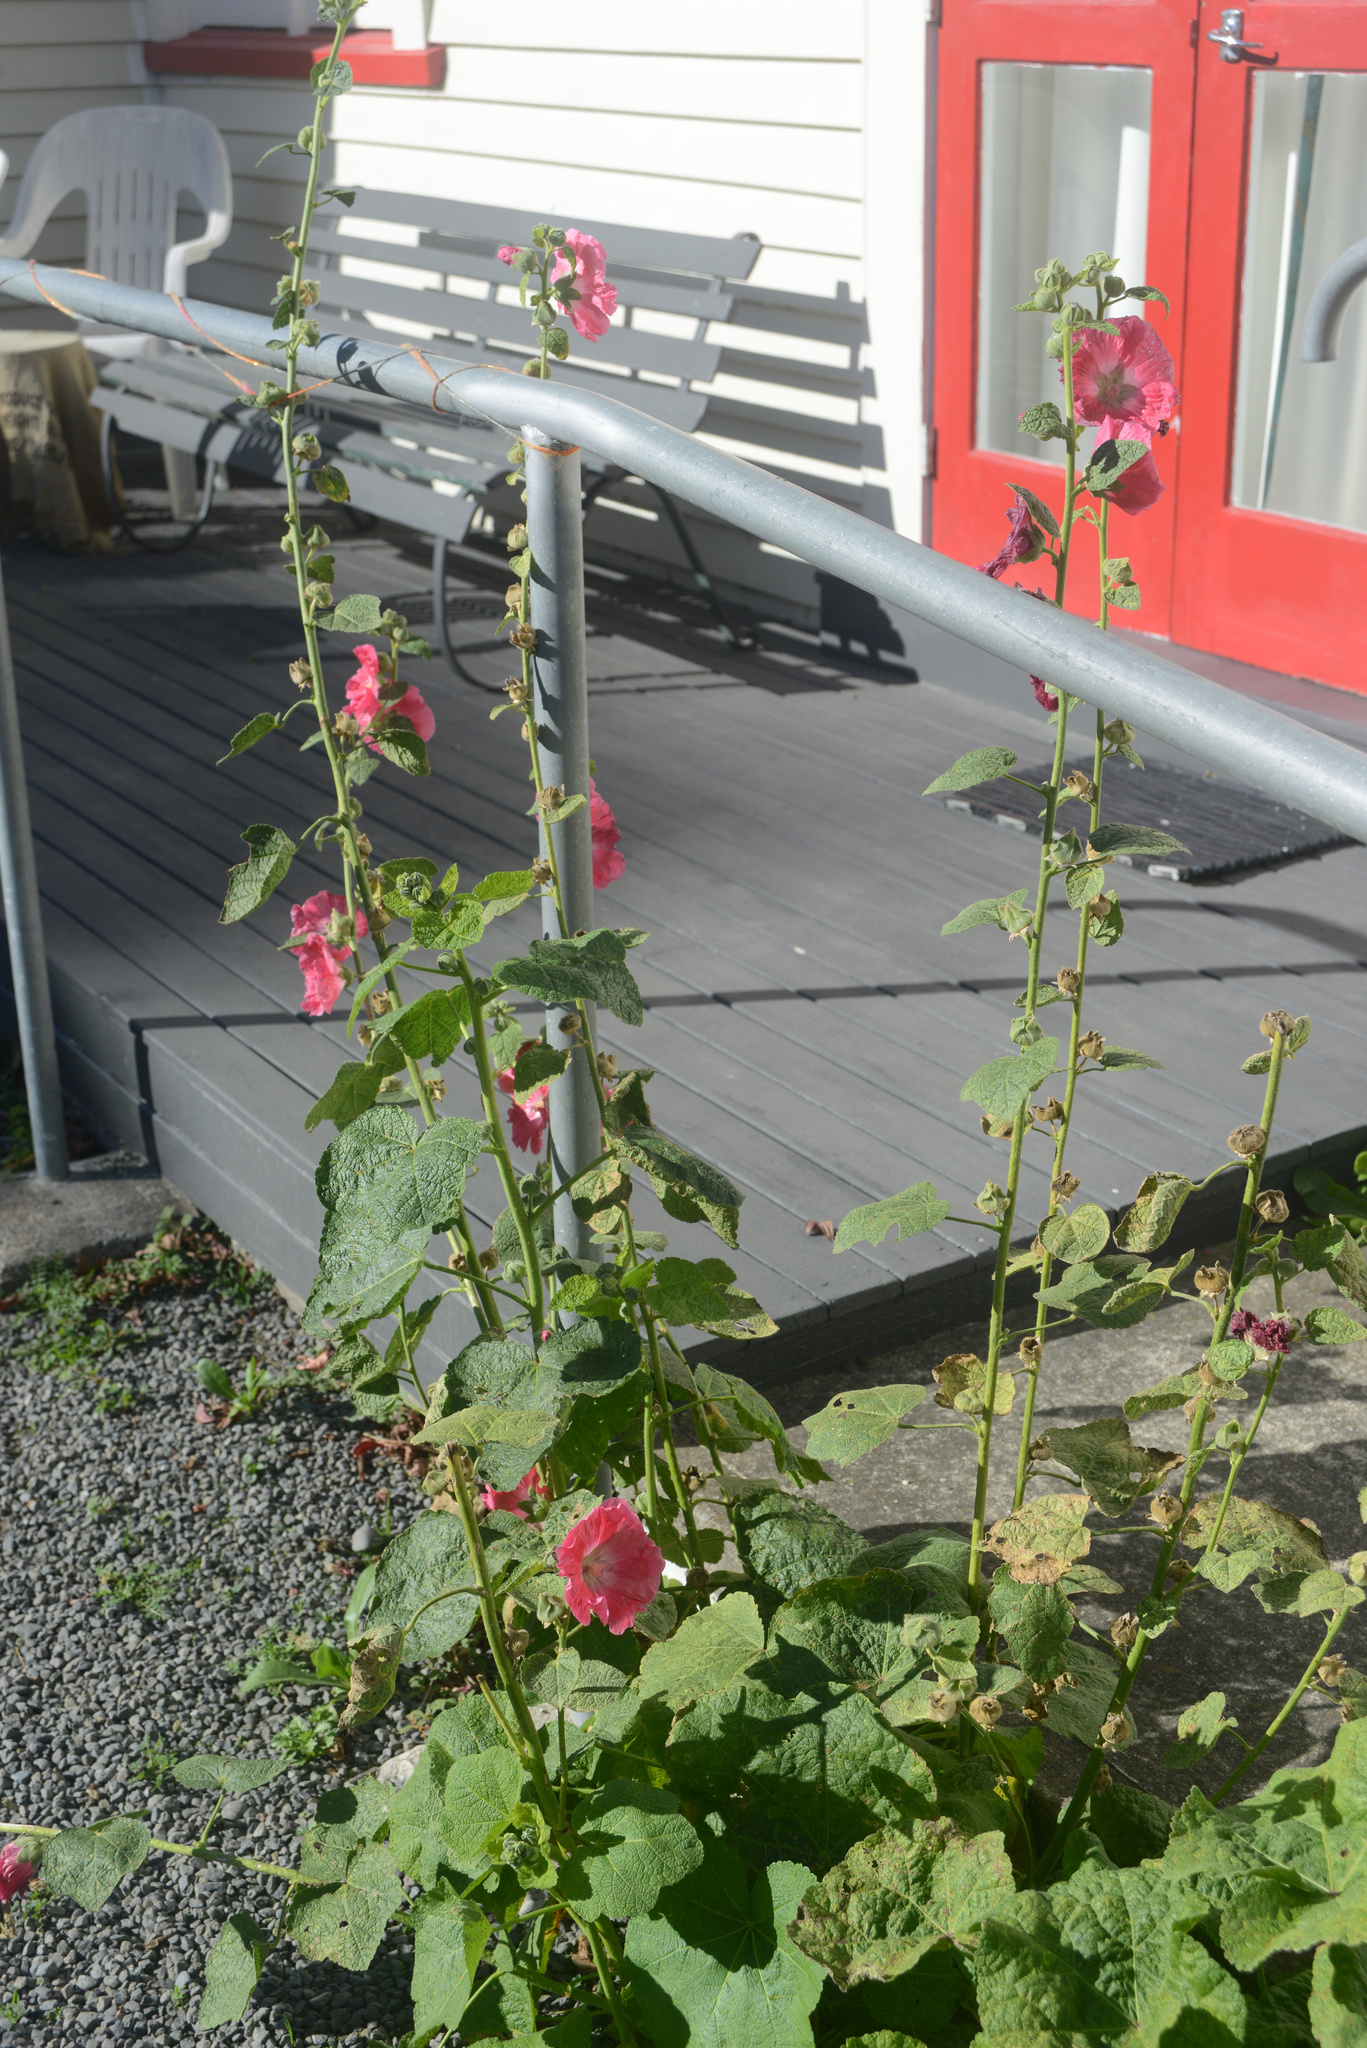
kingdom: Plantae
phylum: Tracheophyta
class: Magnoliopsida
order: Malvales
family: Malvaceae
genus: Alcea
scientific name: Alcea rosea
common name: Hollyhock
